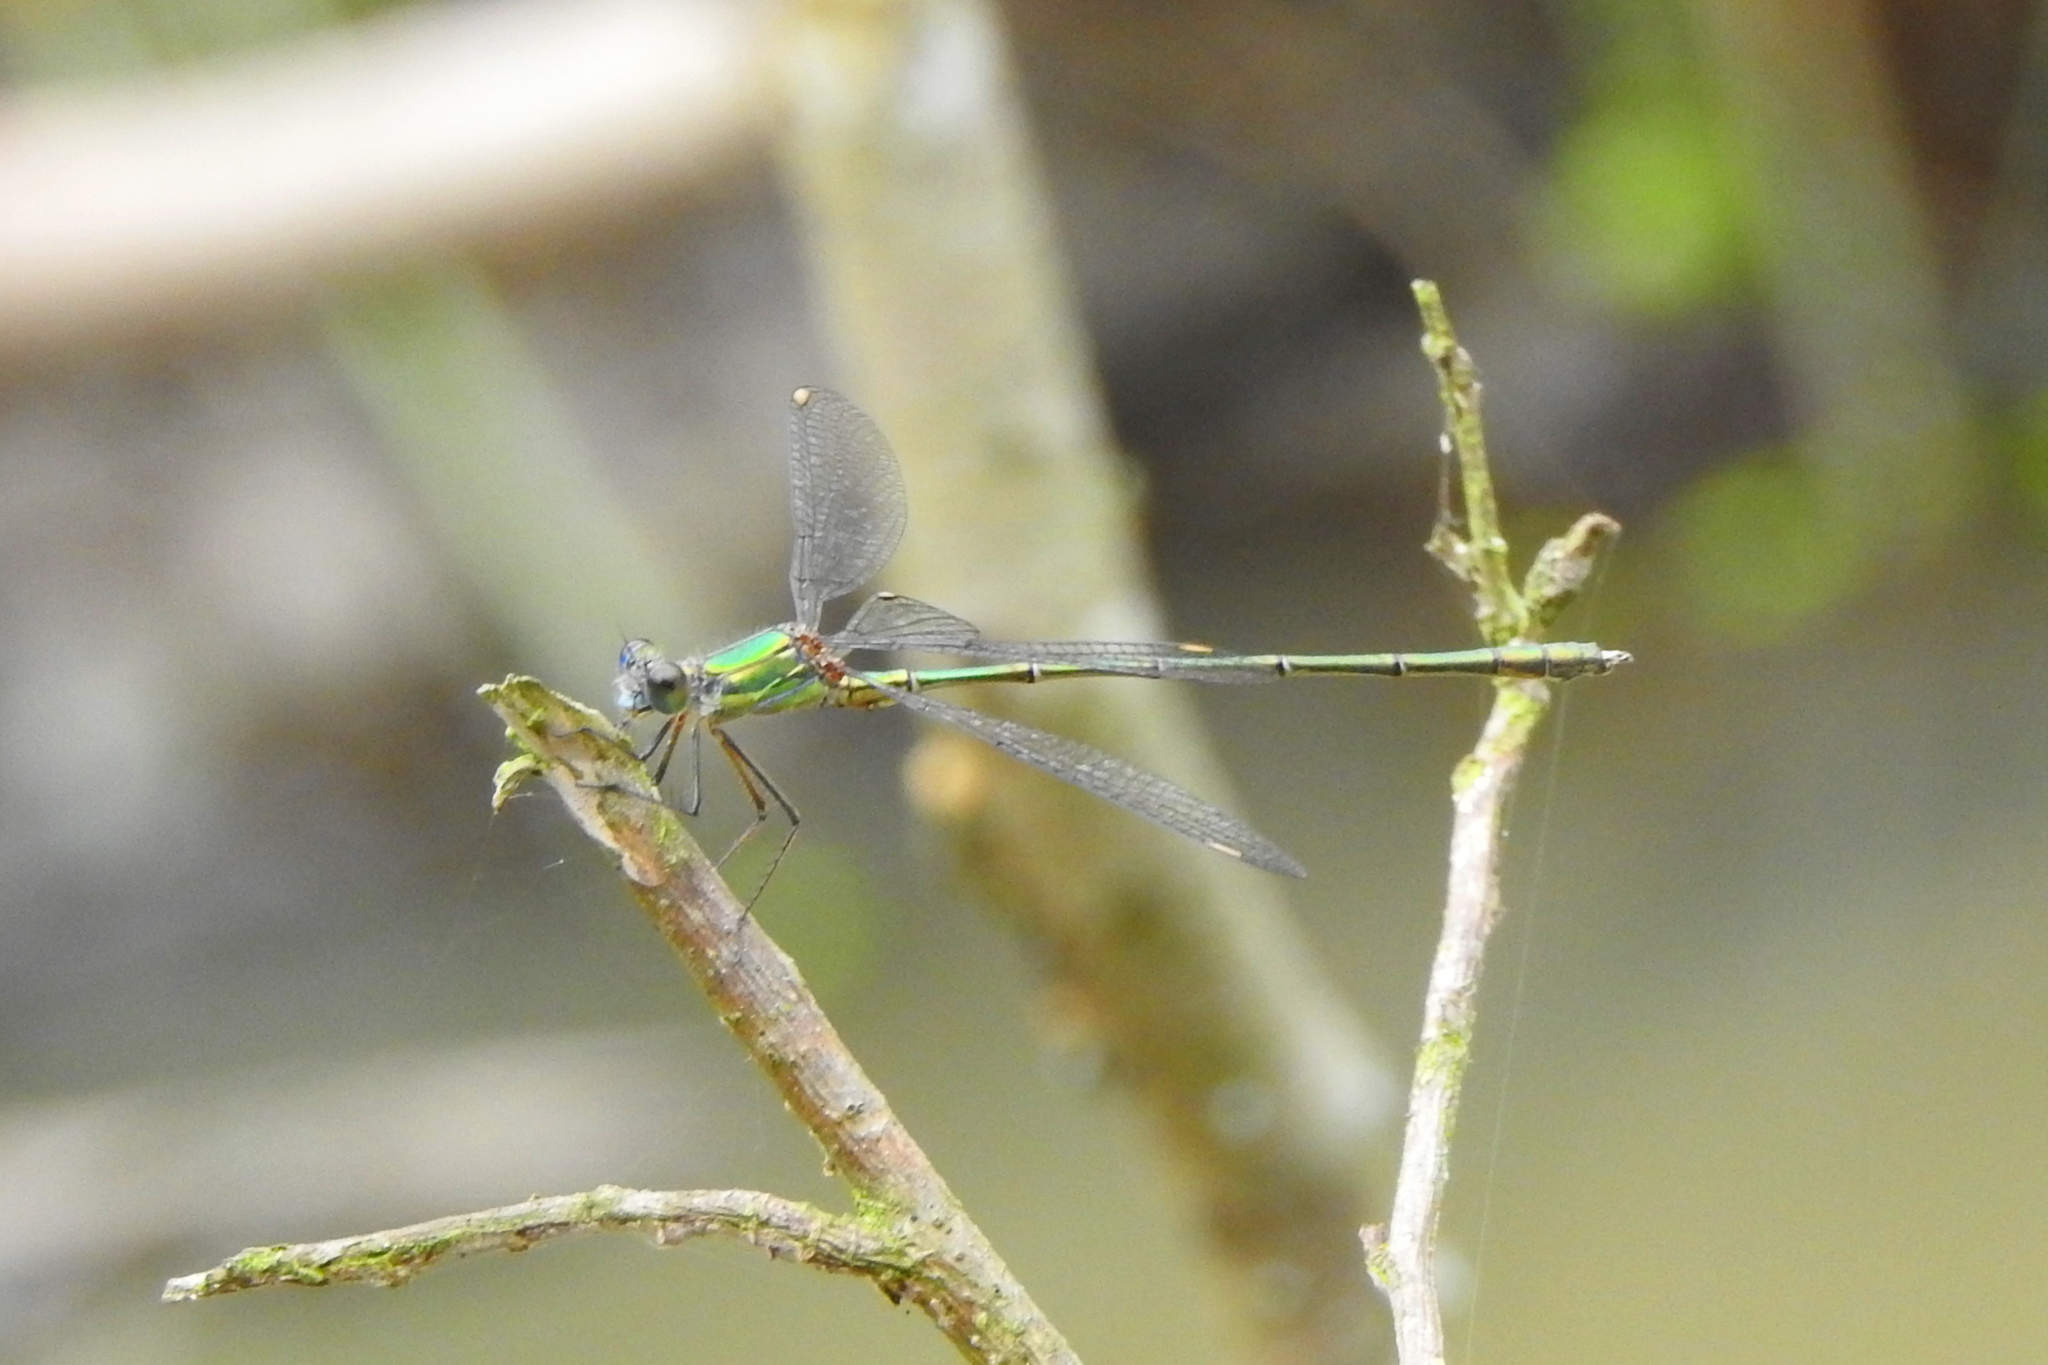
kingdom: Animalia
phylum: Arthropoda
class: Insecta
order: Odonata
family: Lestidae
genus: Chalcolestes
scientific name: Chalcolestes viridis
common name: Green emerald damselfly
